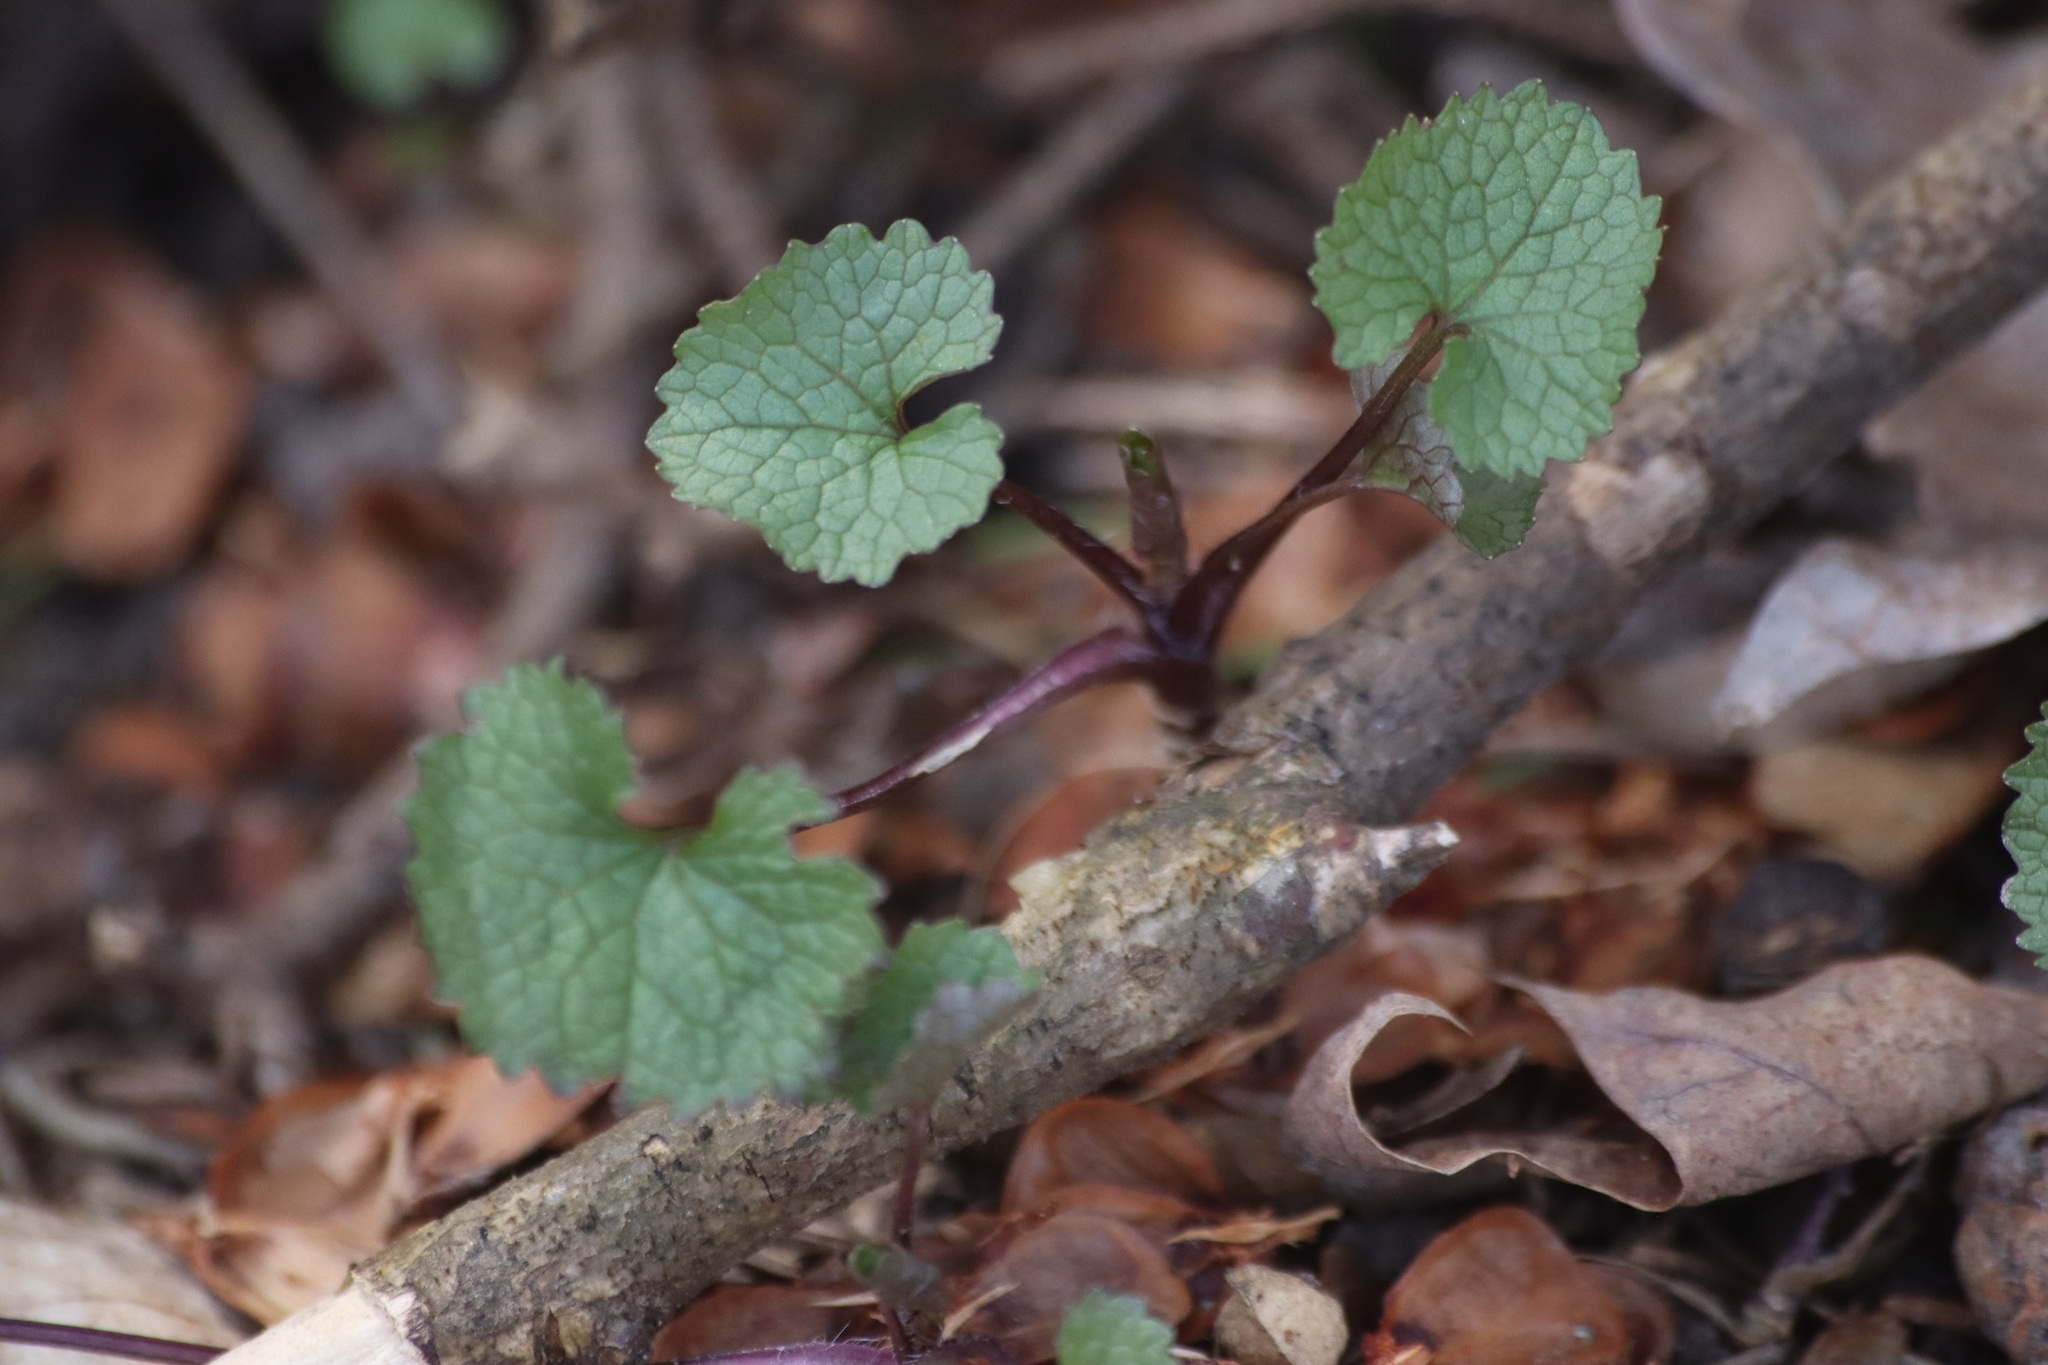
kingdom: Plantae
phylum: Tracheophyta
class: Magnoliopsida
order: Brassicales
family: Brassicaceae
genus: Alliaria
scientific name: Alliaria petiolata
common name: Garlic mustard
